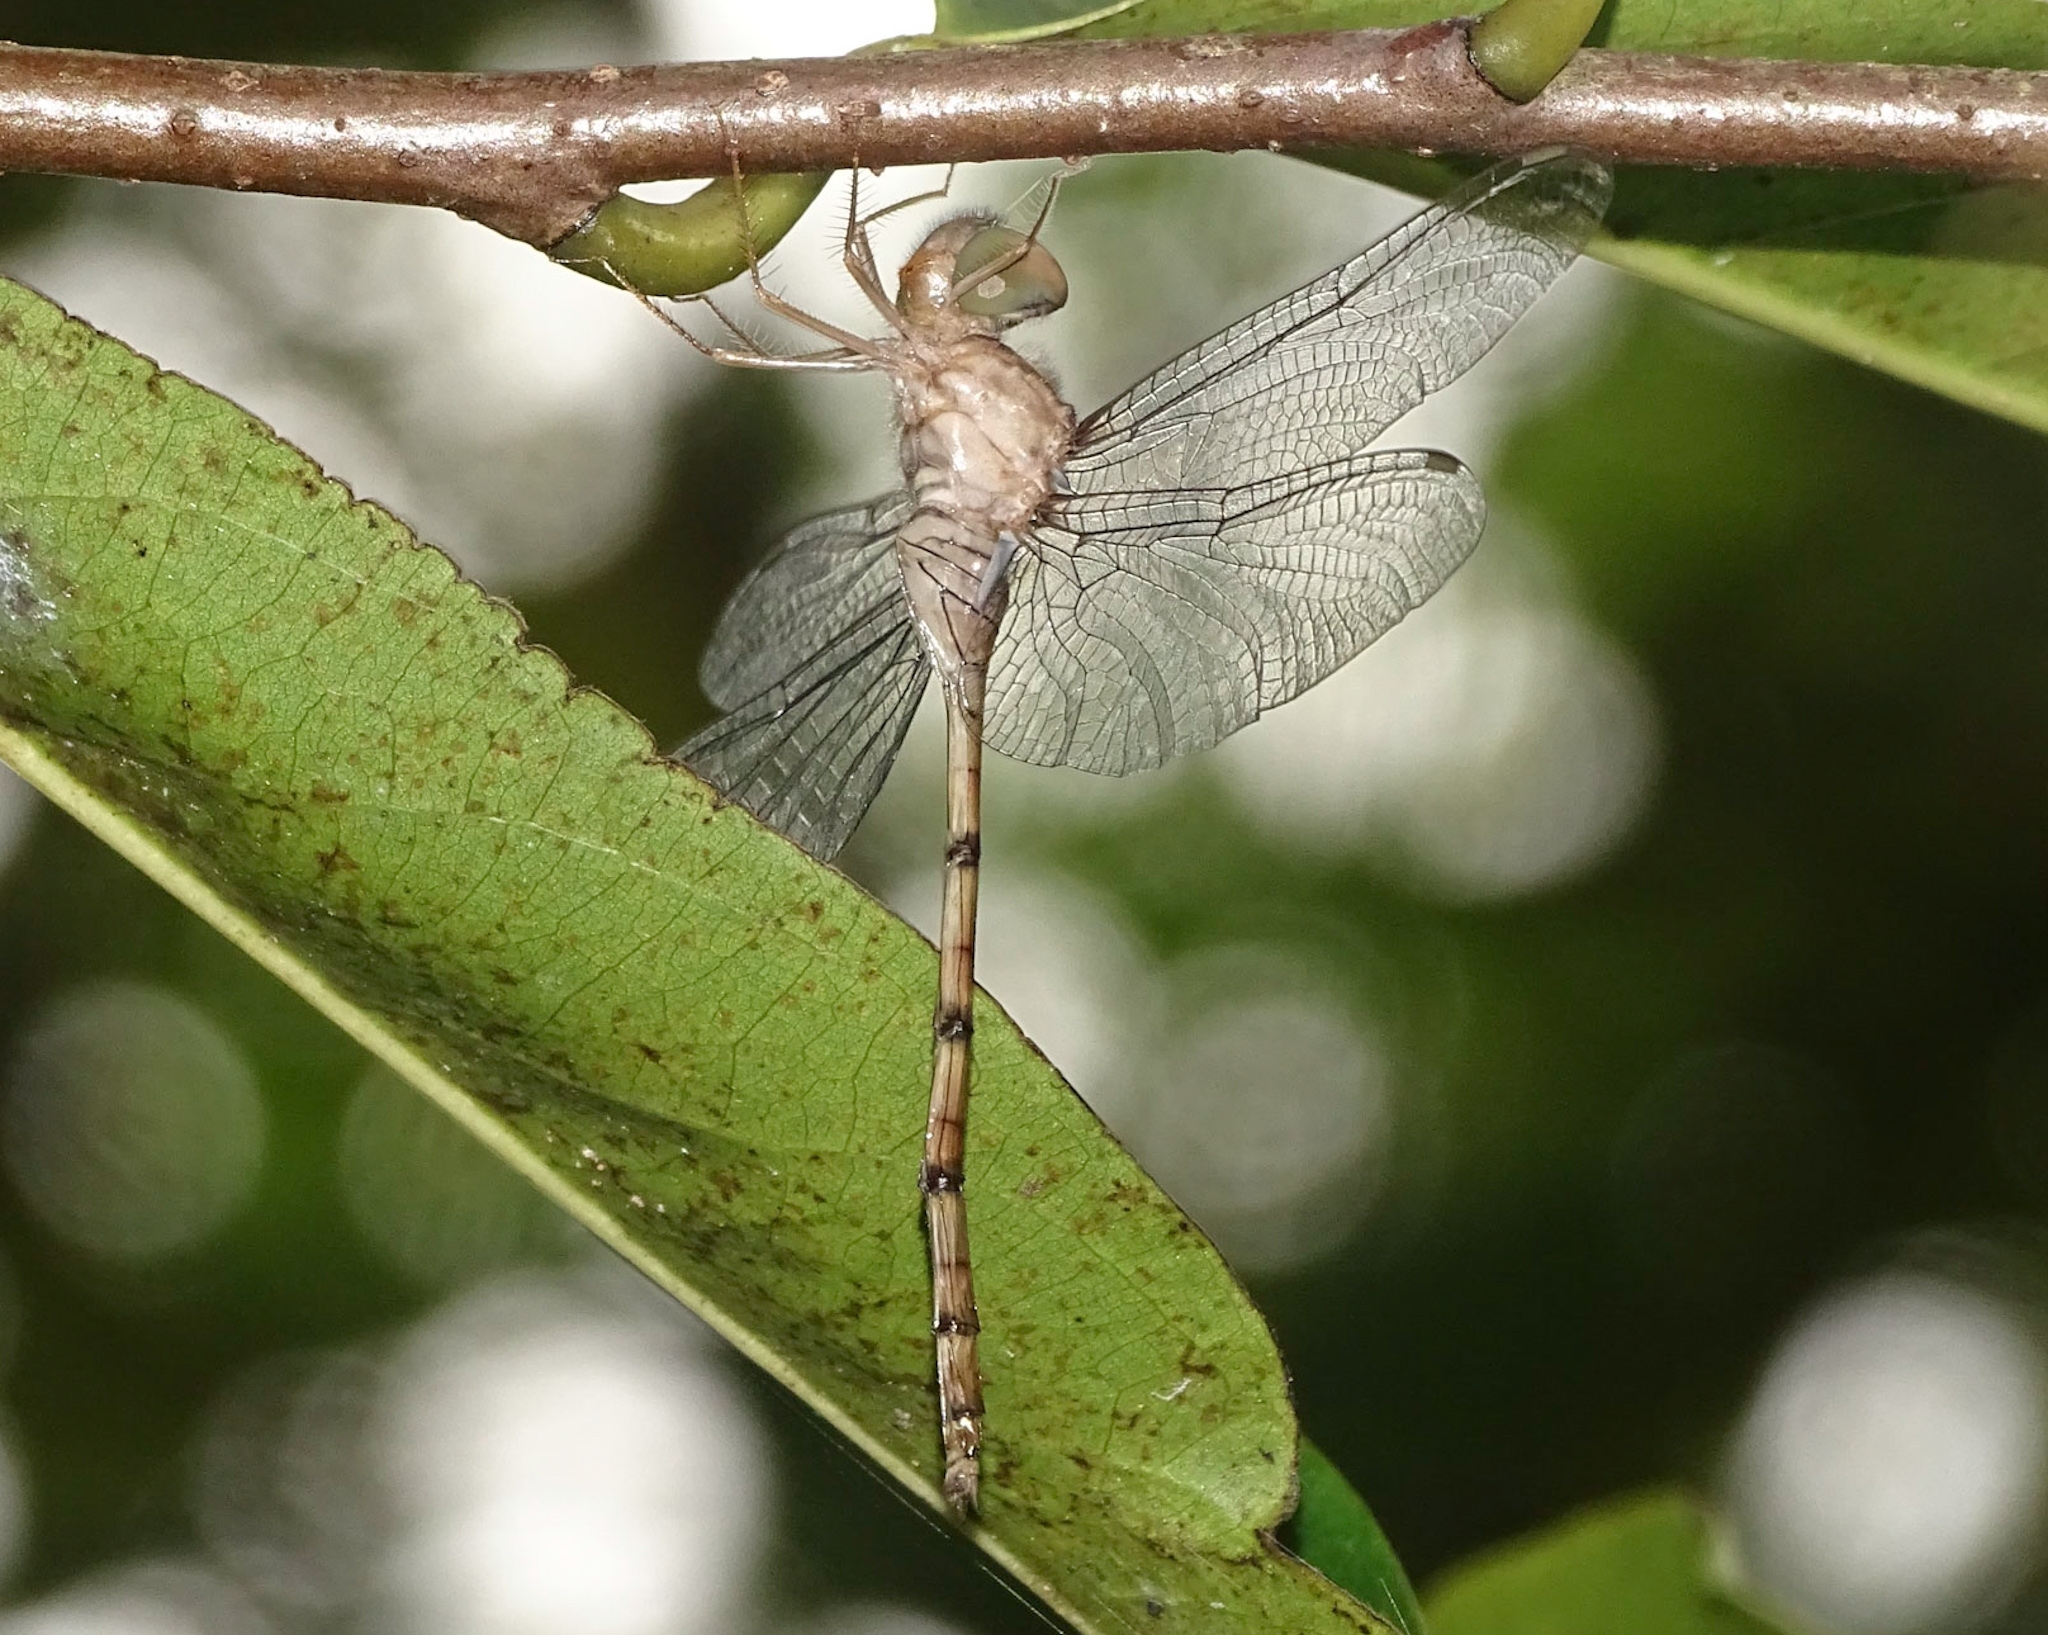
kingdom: Animalia
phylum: Arthropoda
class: Insecta
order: Odonata
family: Libellulidae
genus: Zyxomma
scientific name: Zyxomma petiolatum
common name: Dingy dusk-darter
